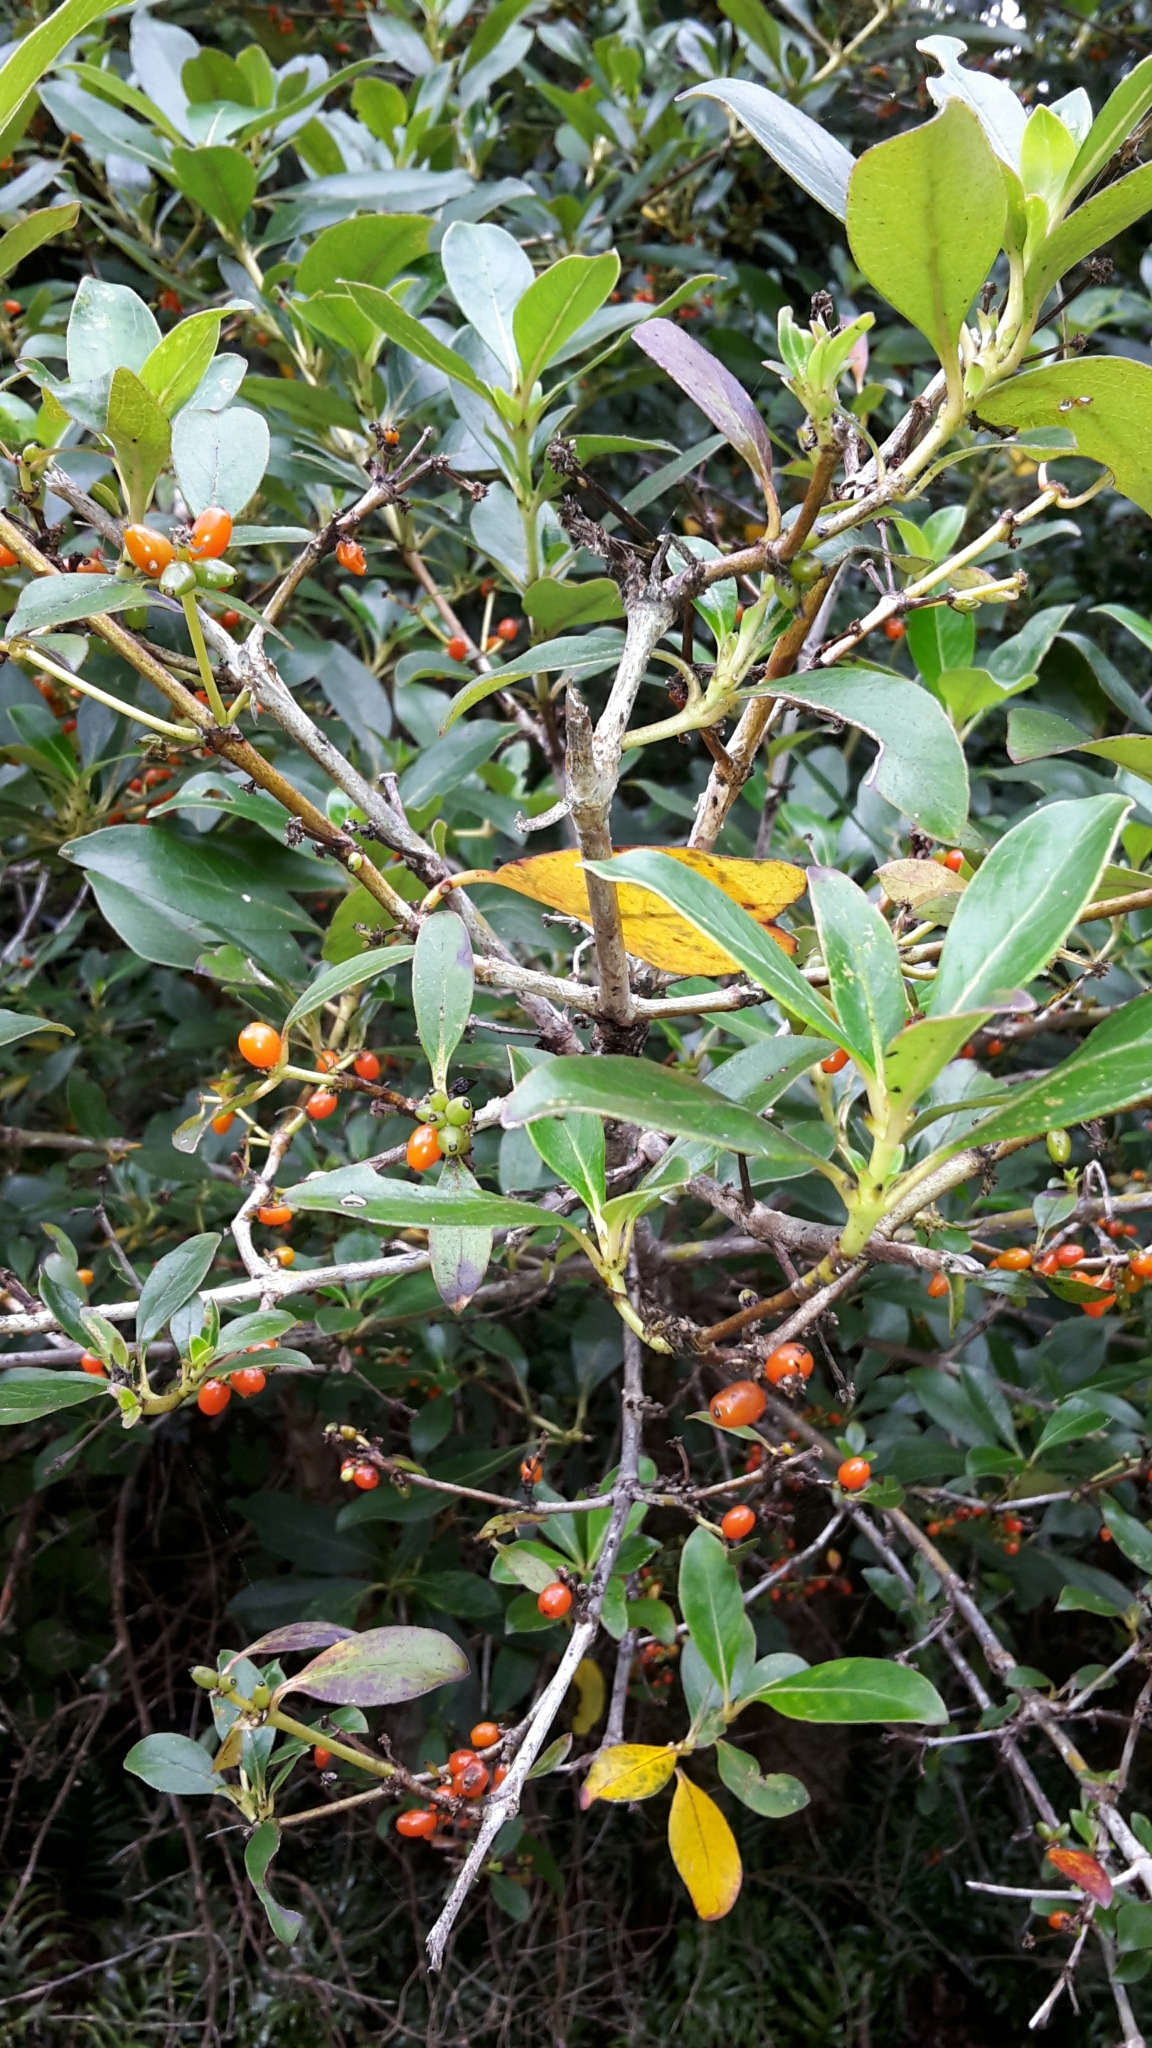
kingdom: Plantae
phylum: Tracheophyta
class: Magnoliopsida
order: Gentianales
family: Rubiaceae
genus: Coprosma
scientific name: Coprosma robusta
